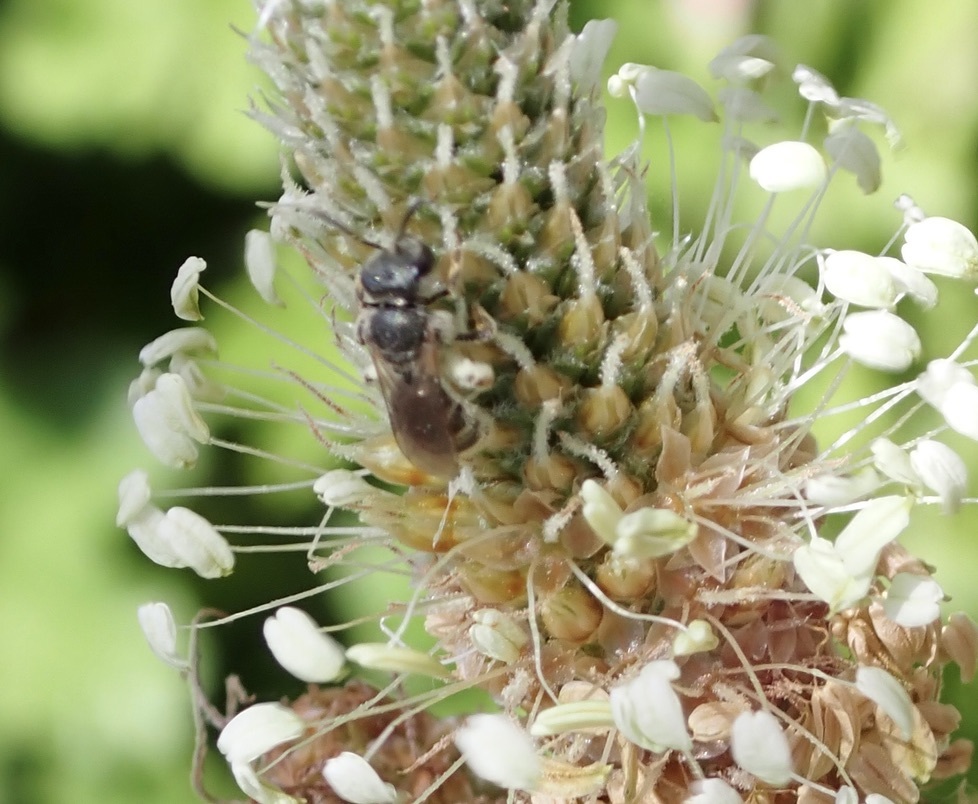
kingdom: Animalia
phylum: Arthropoda
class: Insecta
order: Hymenoptera
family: Halictidae
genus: Halictus
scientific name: Halictus tripartitus
